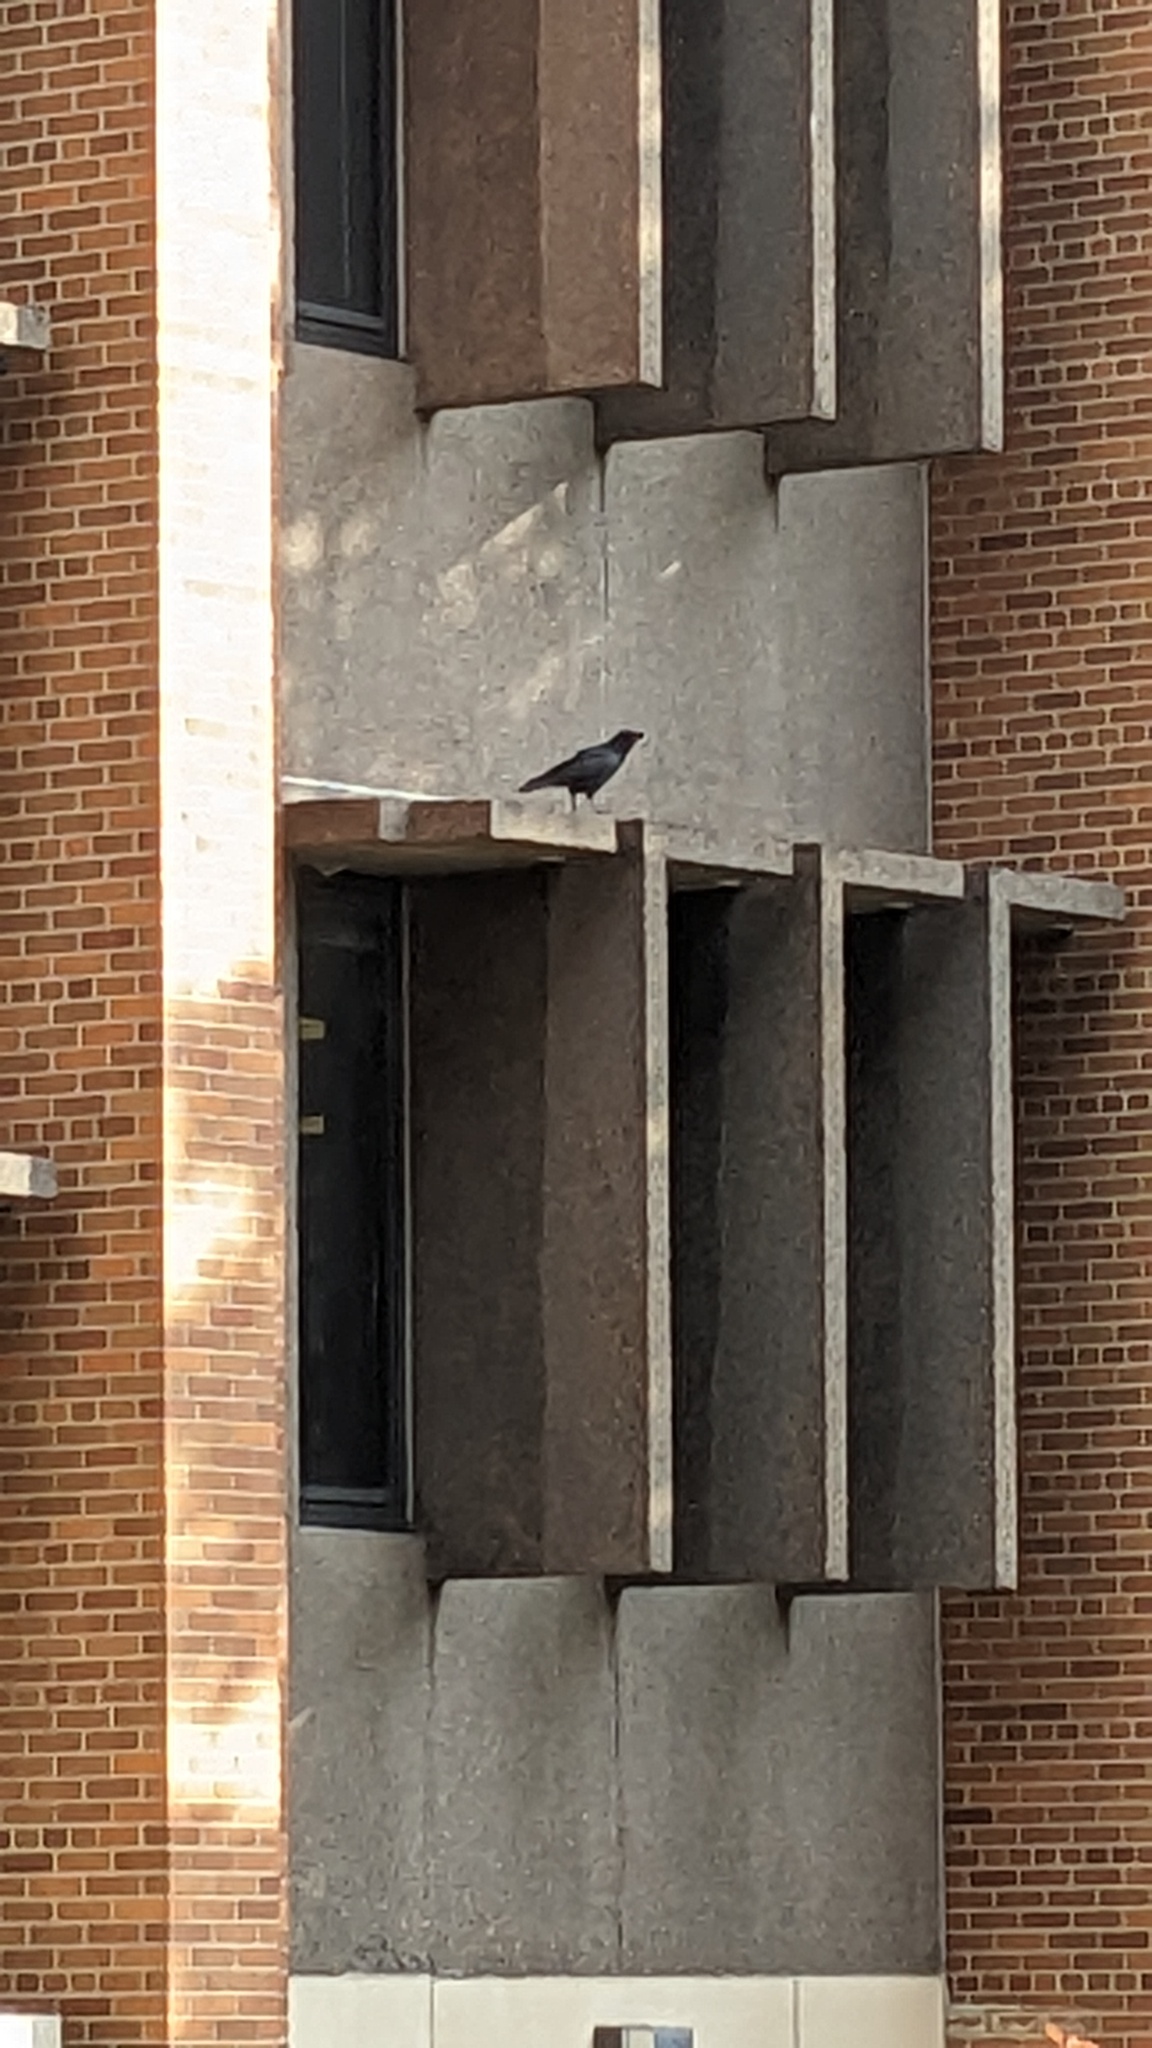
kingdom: Animalia
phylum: Chordata
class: Aves
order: Passeriformes
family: Corvidae
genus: Corvus
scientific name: Corvus brachyrhynchos
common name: American crow
